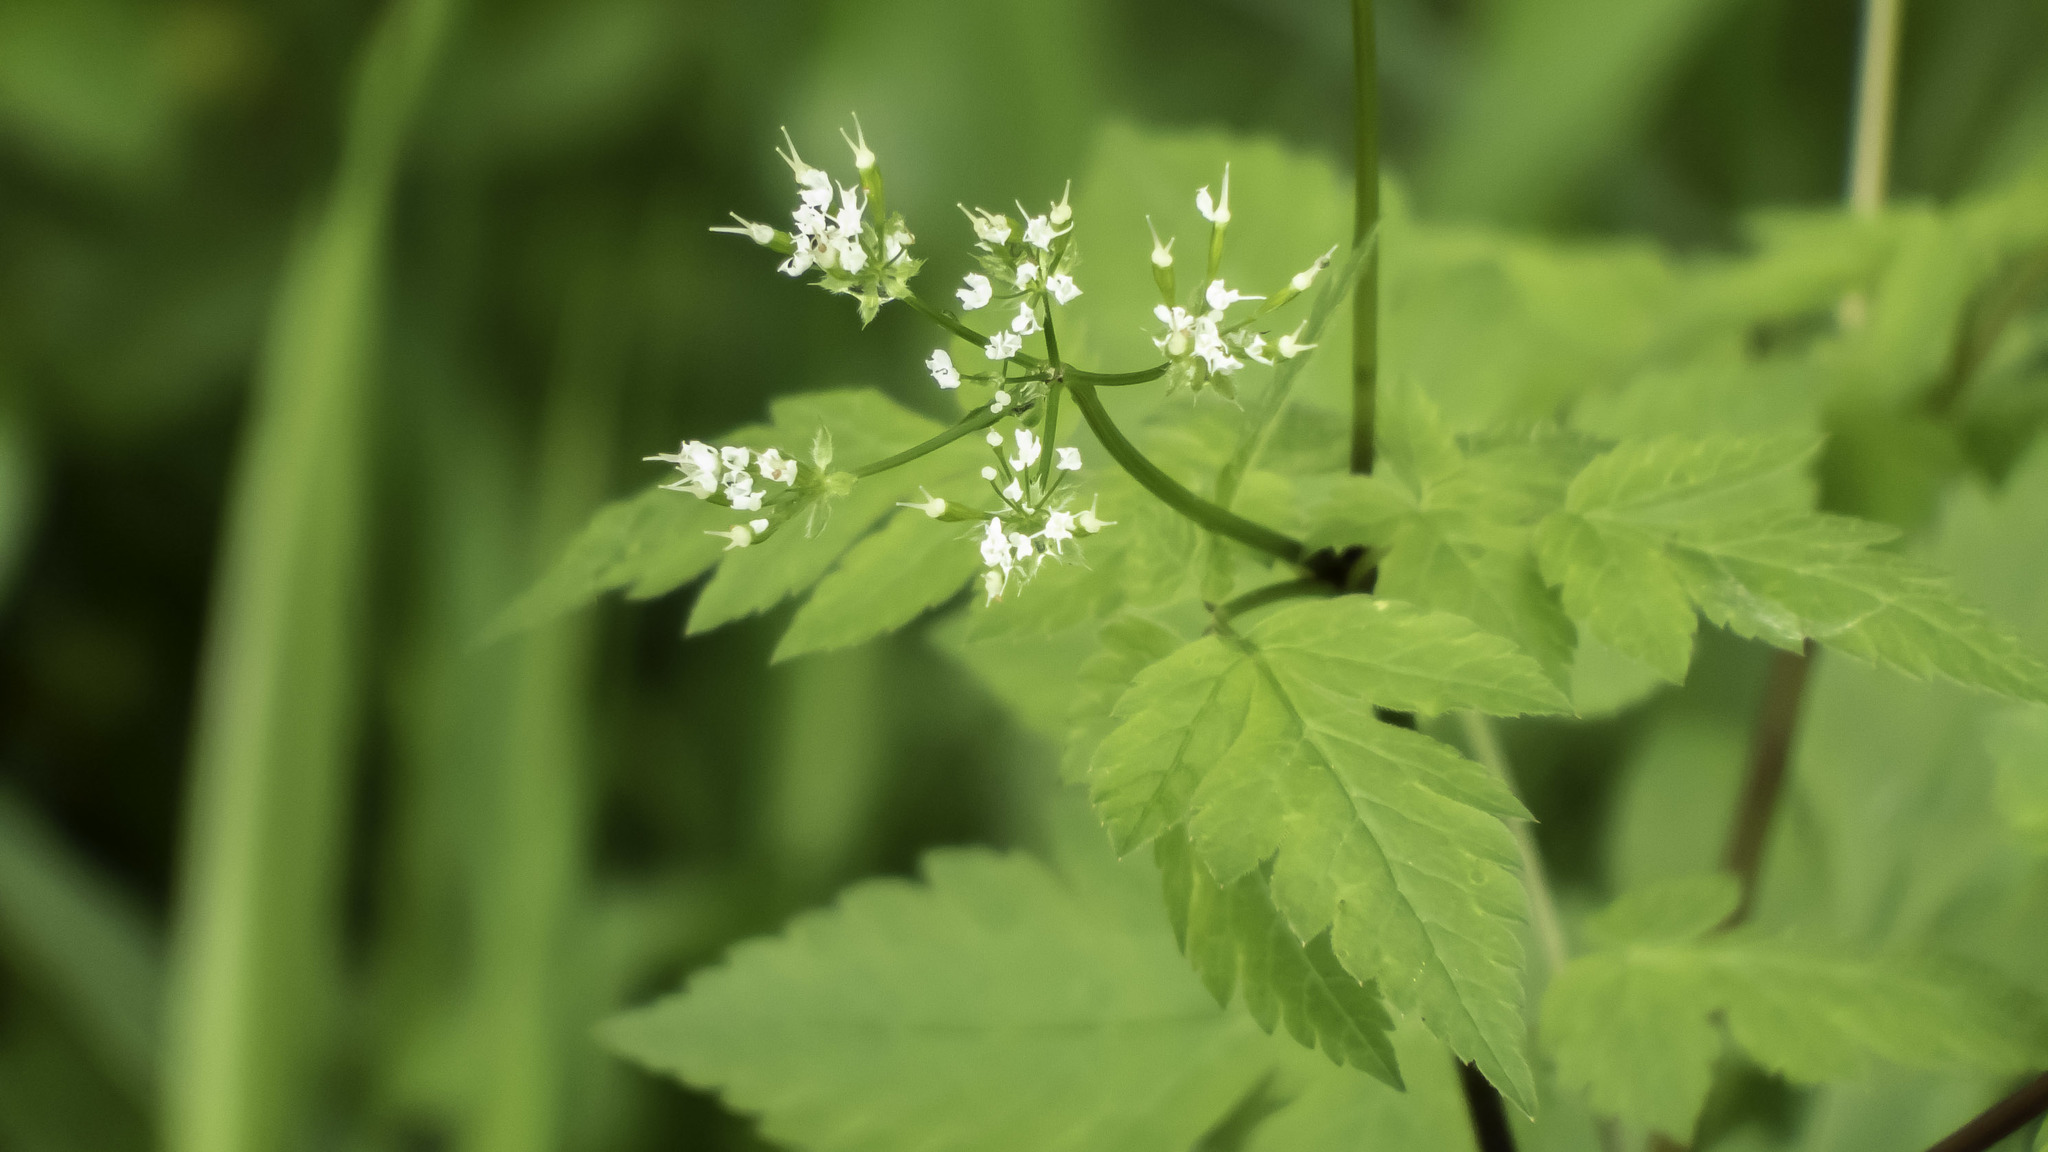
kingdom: Plantae
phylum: Tracheophyta
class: Magnoliopsida
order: Apiales
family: Apiaceae
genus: Osmorhiza
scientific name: Osmorhiza longistylis
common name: Smooth sweet cicely
